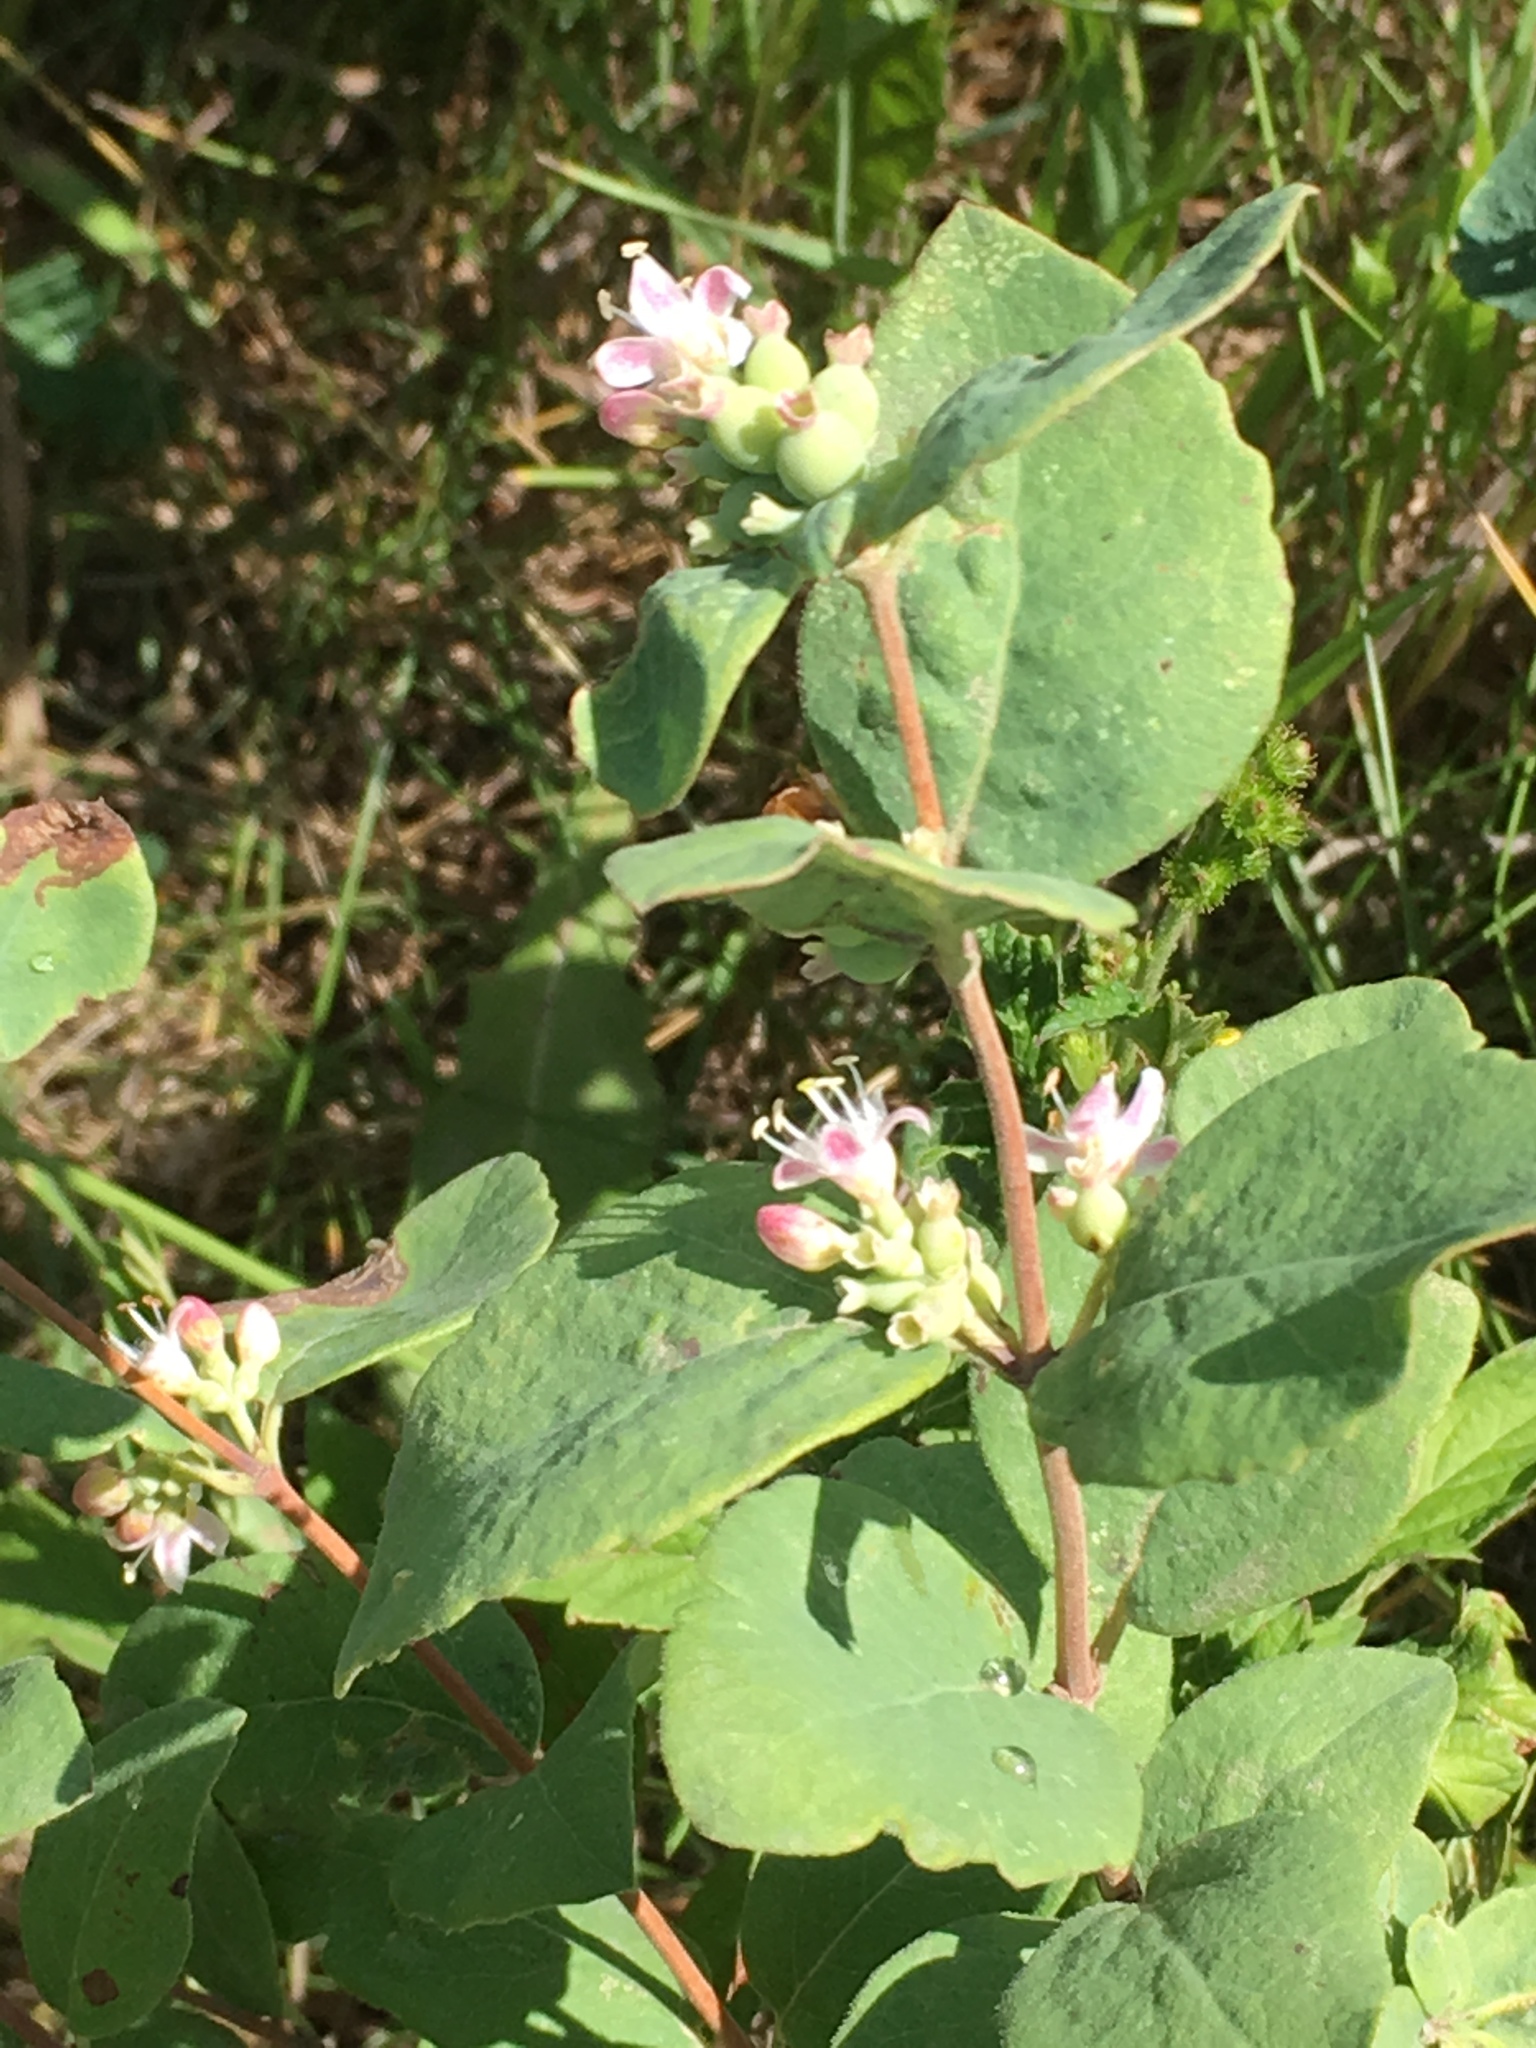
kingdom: Plantae
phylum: Tracheophyta
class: Magnoliopsida
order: Dipsacales
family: Caprifoliaceae
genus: Symphoricarpos
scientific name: Symphoricarpos occidentalis
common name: Wolfberry
